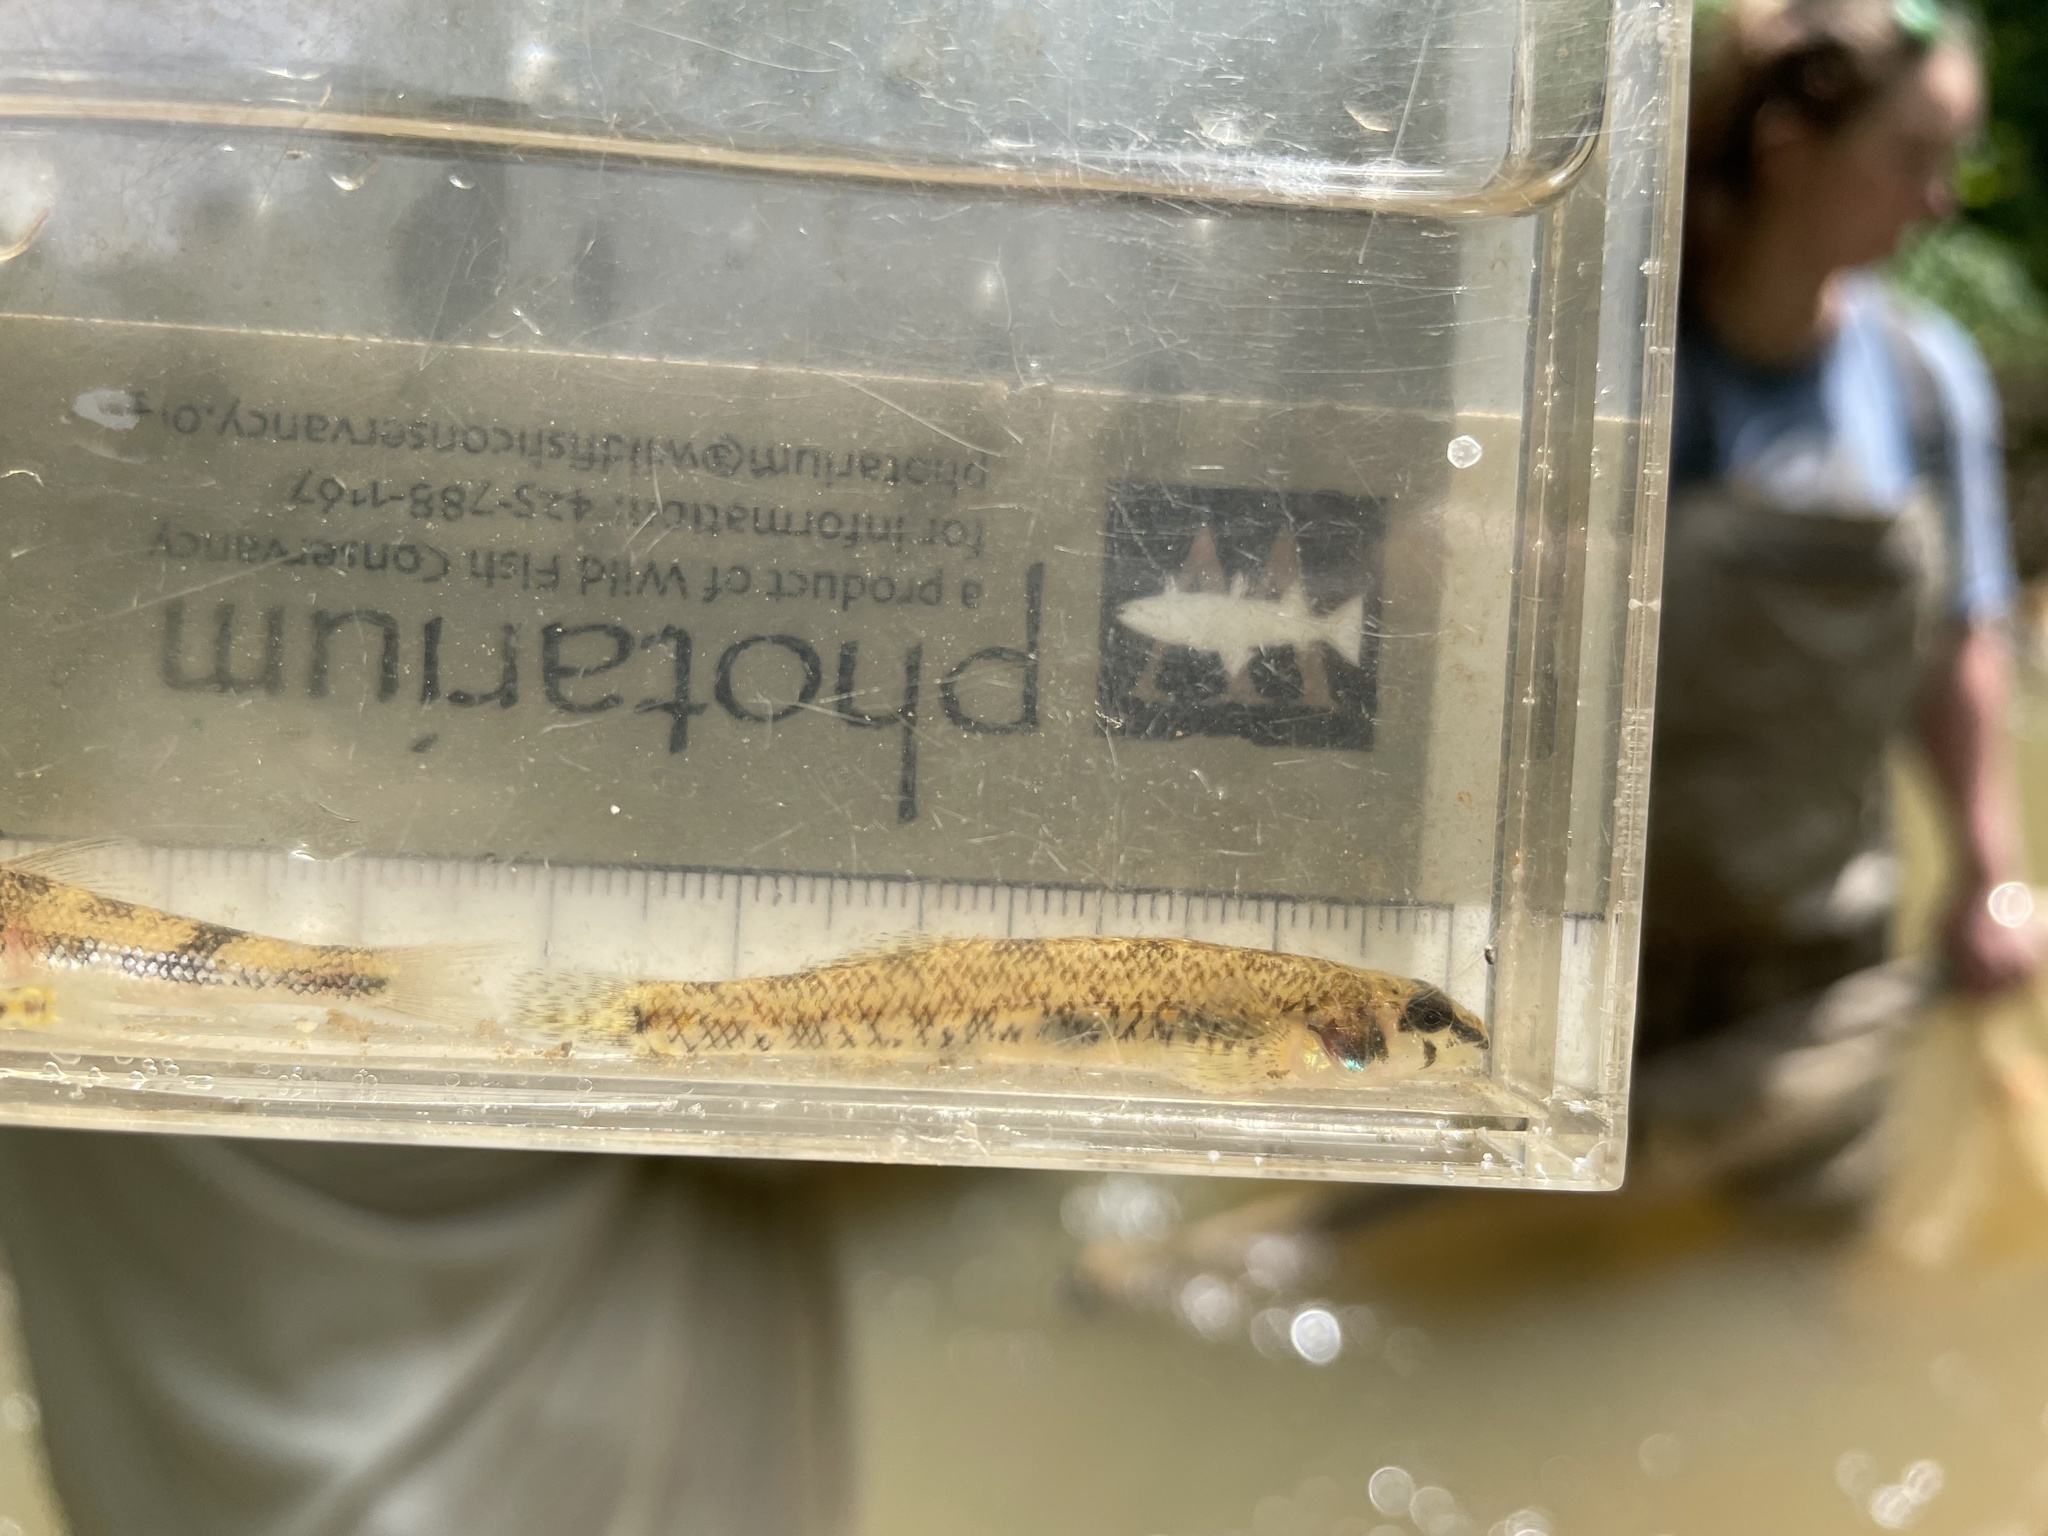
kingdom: Animalia
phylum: Chordata
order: Perciformes
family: Percidae
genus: Etheostoma
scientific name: Etheostoma stigmaeum
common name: Speckled darter
